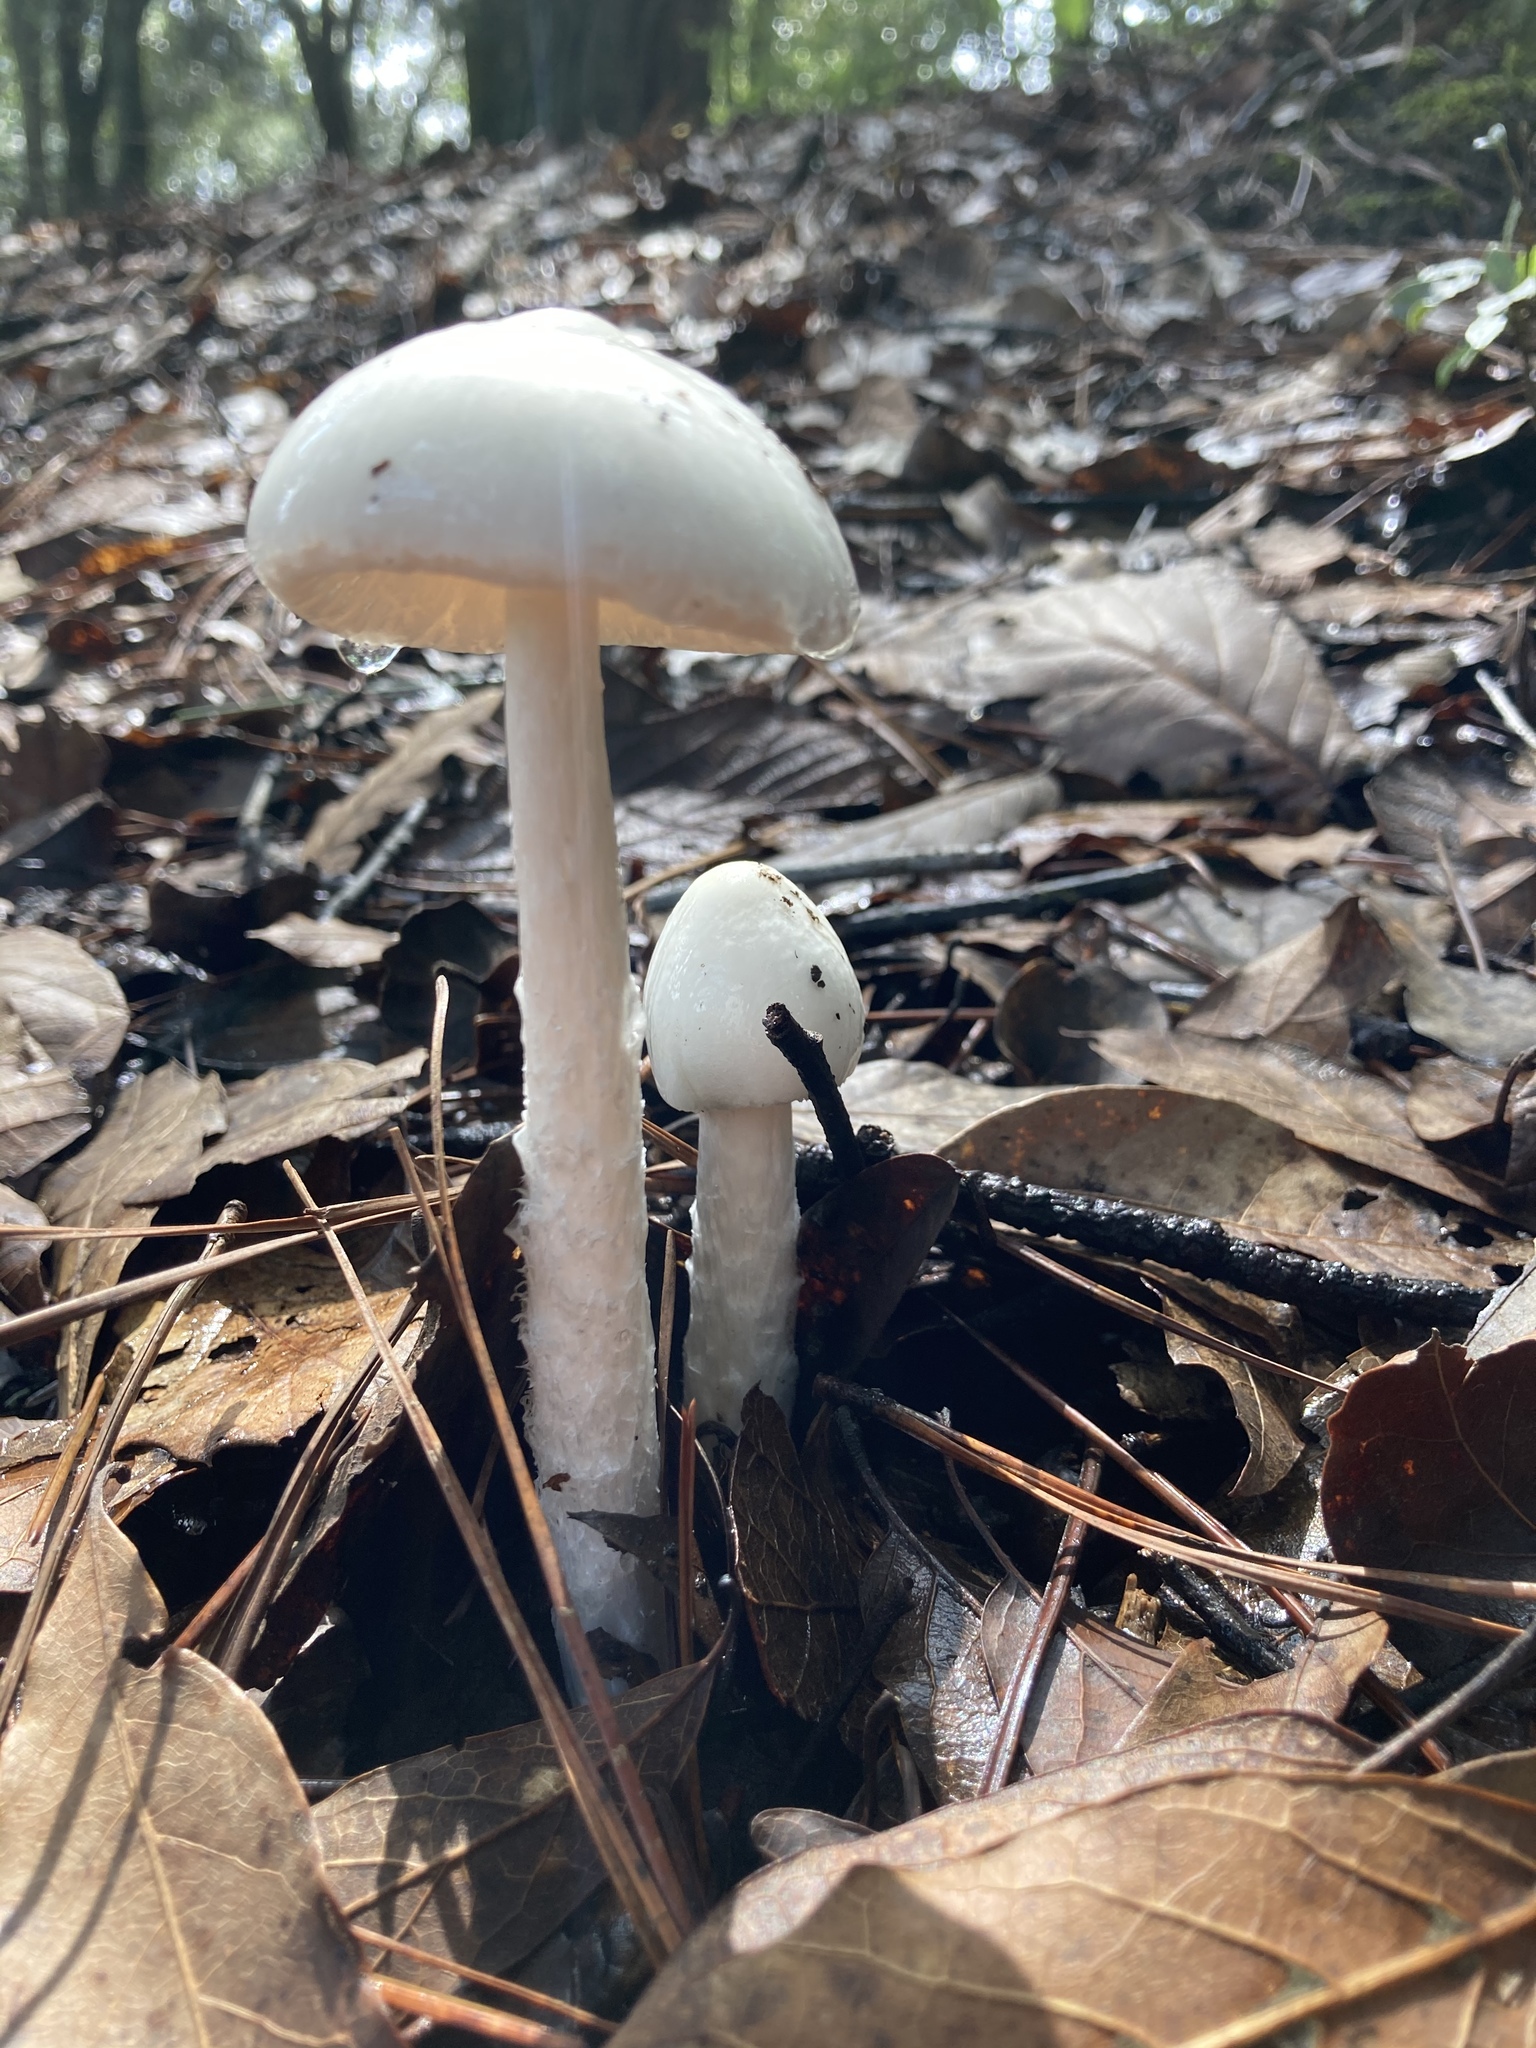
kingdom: Fungi
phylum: Basidiomycota
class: Agaricomycetes
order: Agaricales
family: Amanitaceae
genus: Amanita
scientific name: Amanita bisporigera
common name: Eastern north american destroying angel
